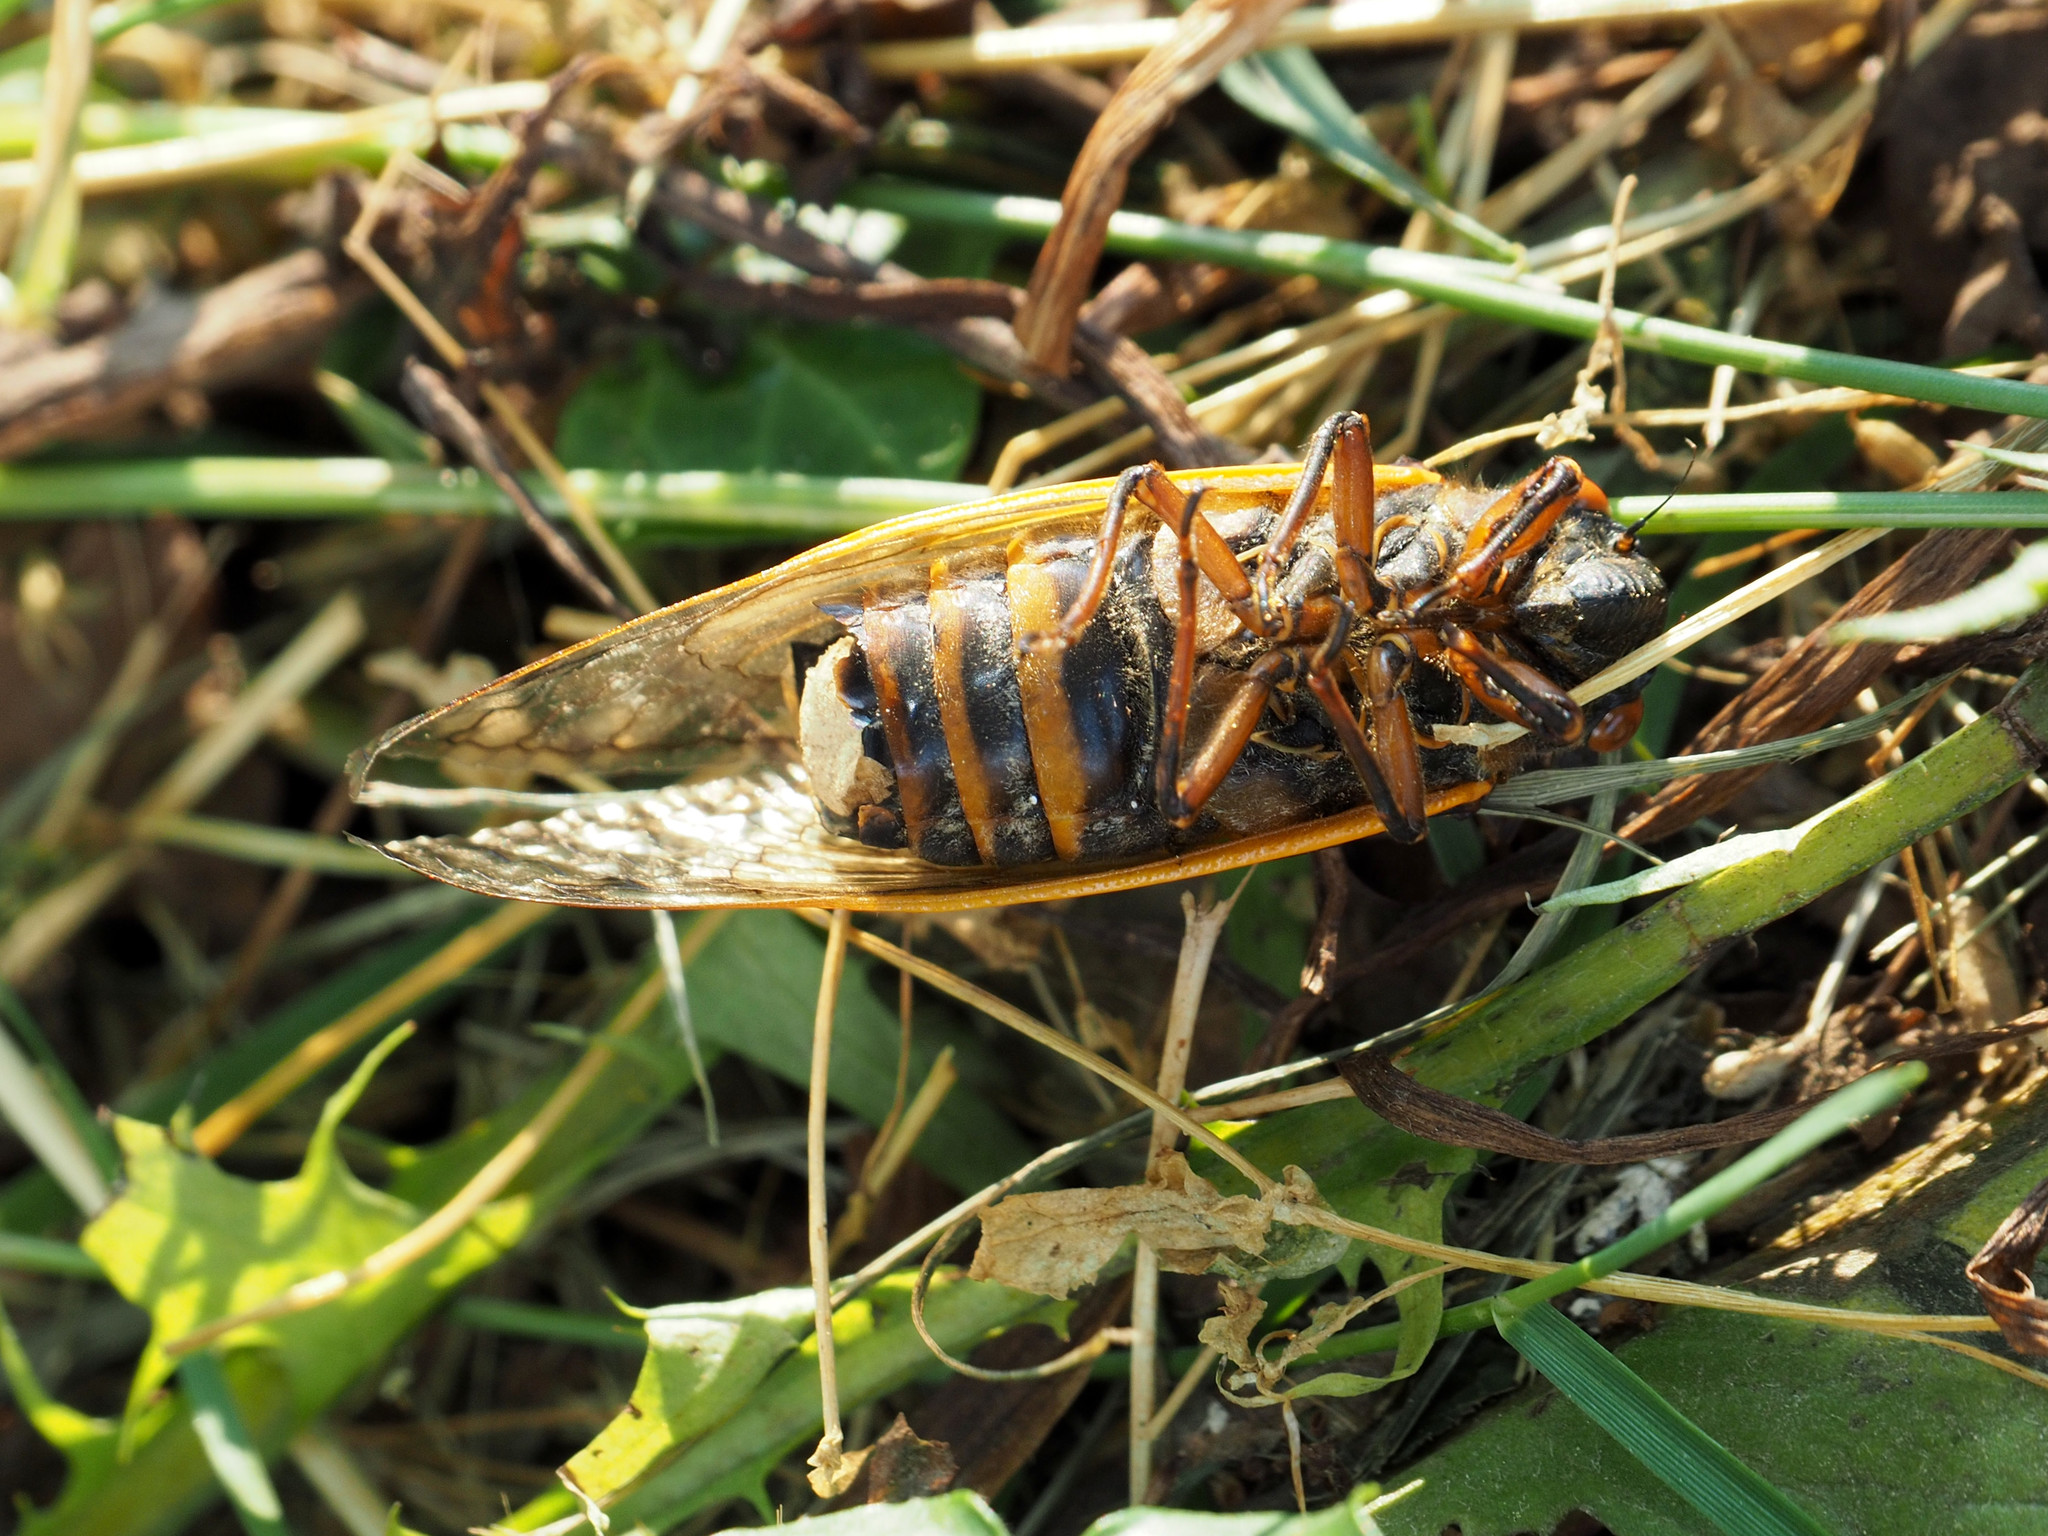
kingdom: Fungi
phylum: Entomophthoromycota
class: Entomophthoromycetes
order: Entomophthorales
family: Entomophthoraceae
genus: Massospora
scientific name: Massospora cicadina
